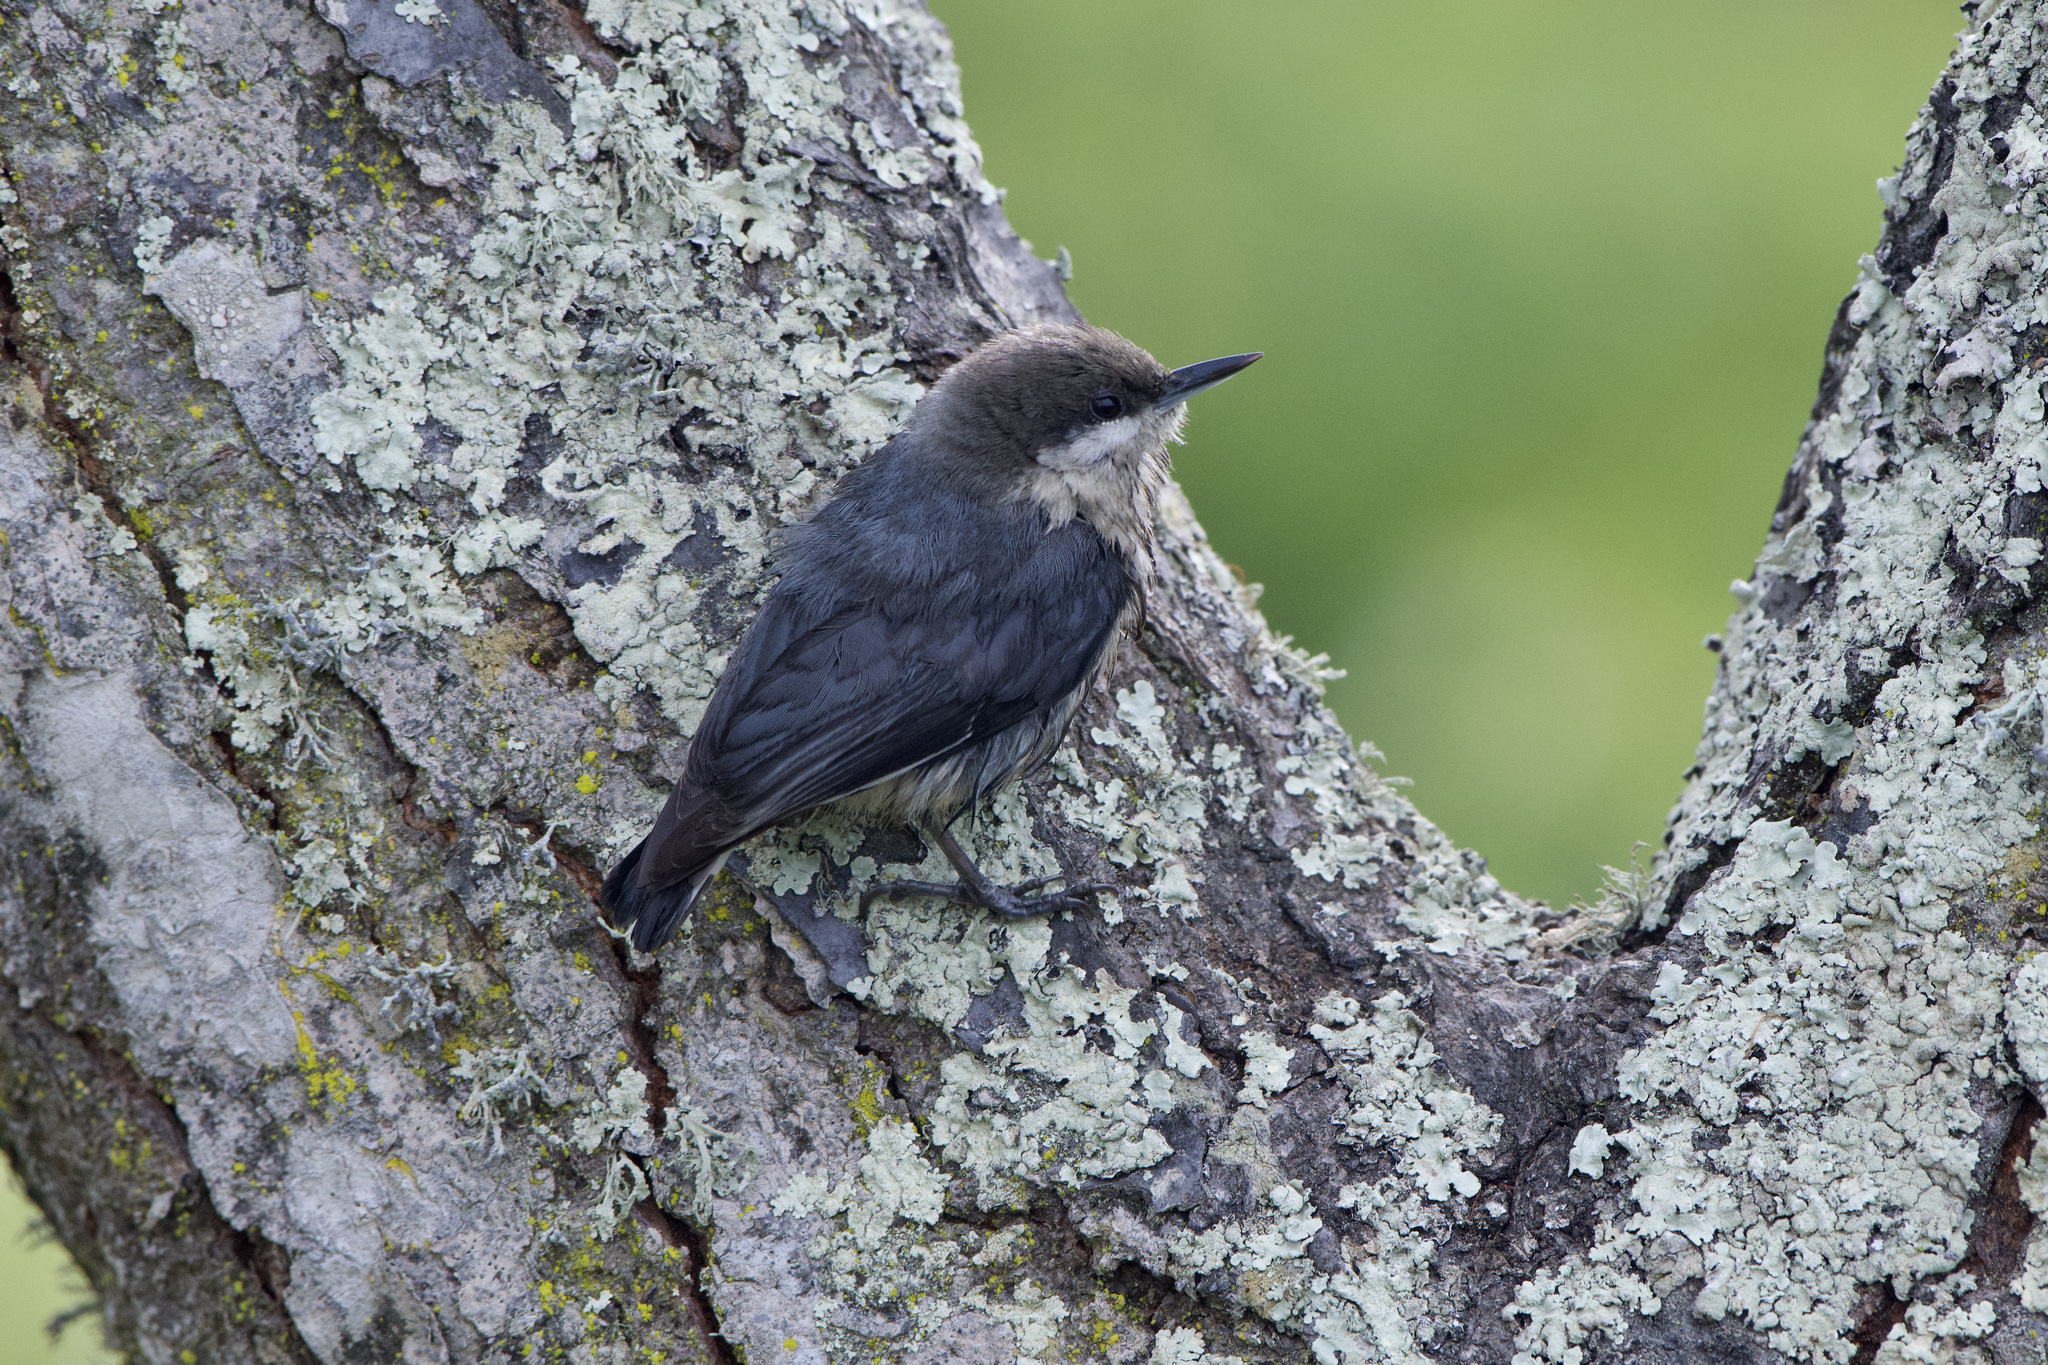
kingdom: Animalia
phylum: Chordata
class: Aves
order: Passeriformes
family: Sittidae
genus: Sitta
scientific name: Sitta pygmaea
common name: Pygmy nuthatch
